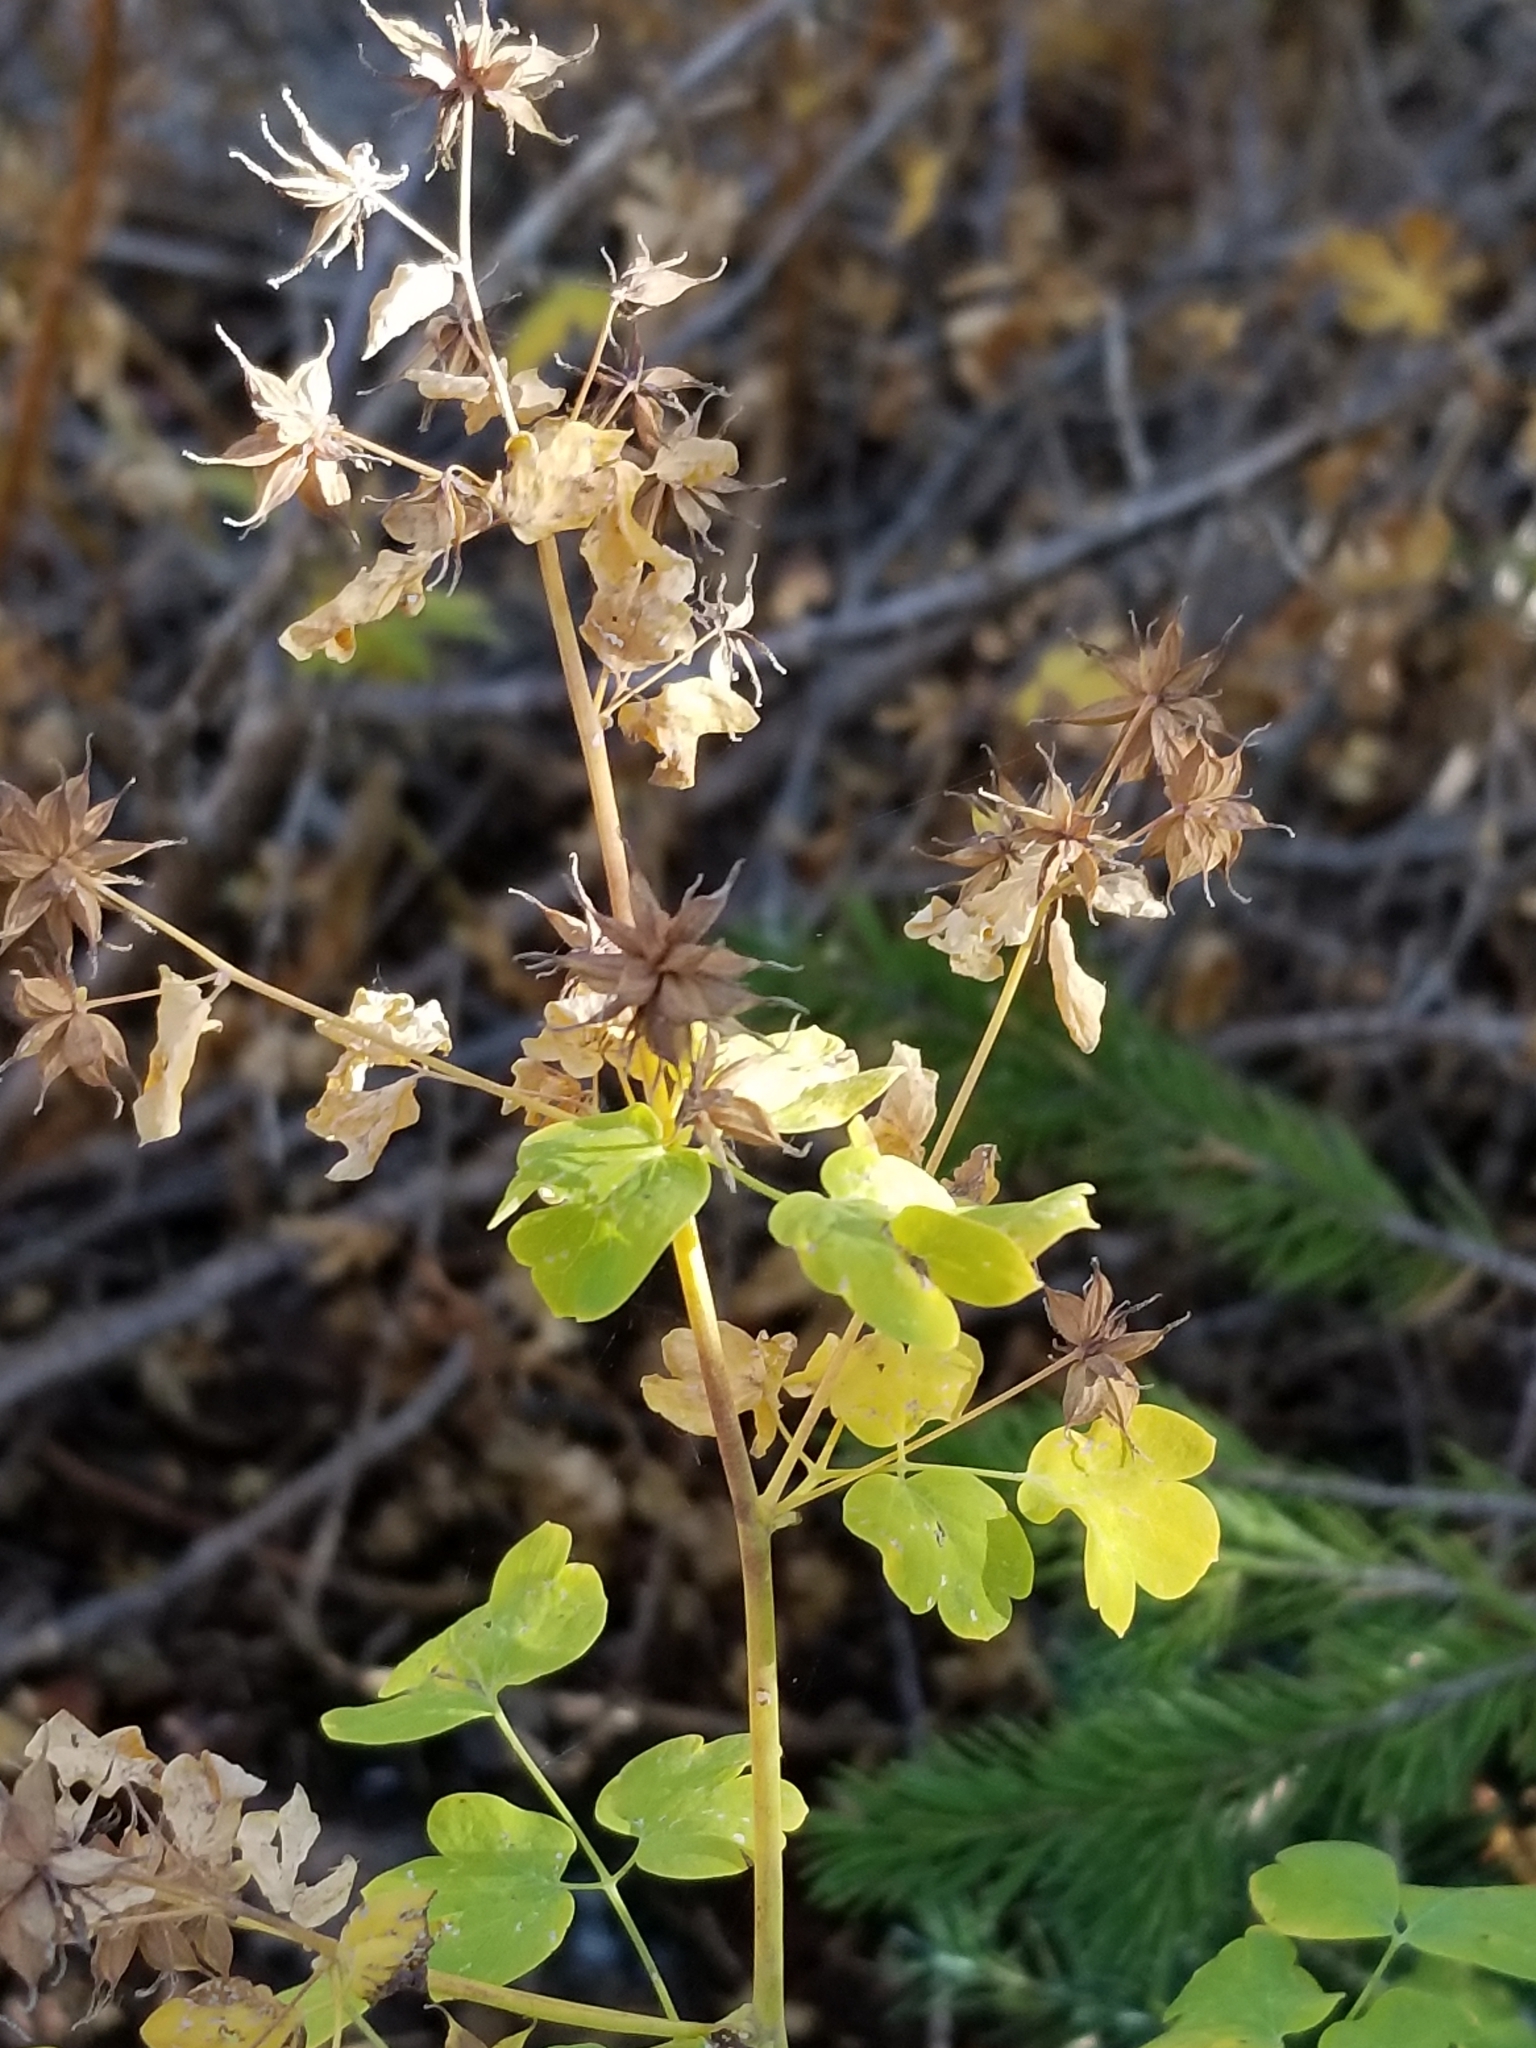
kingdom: Plantae
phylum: Tracheophyta
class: Magnoliopsida
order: Ranunculales
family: Ranunculaceae
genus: Thalictrum
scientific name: Thalictrum fendleri
